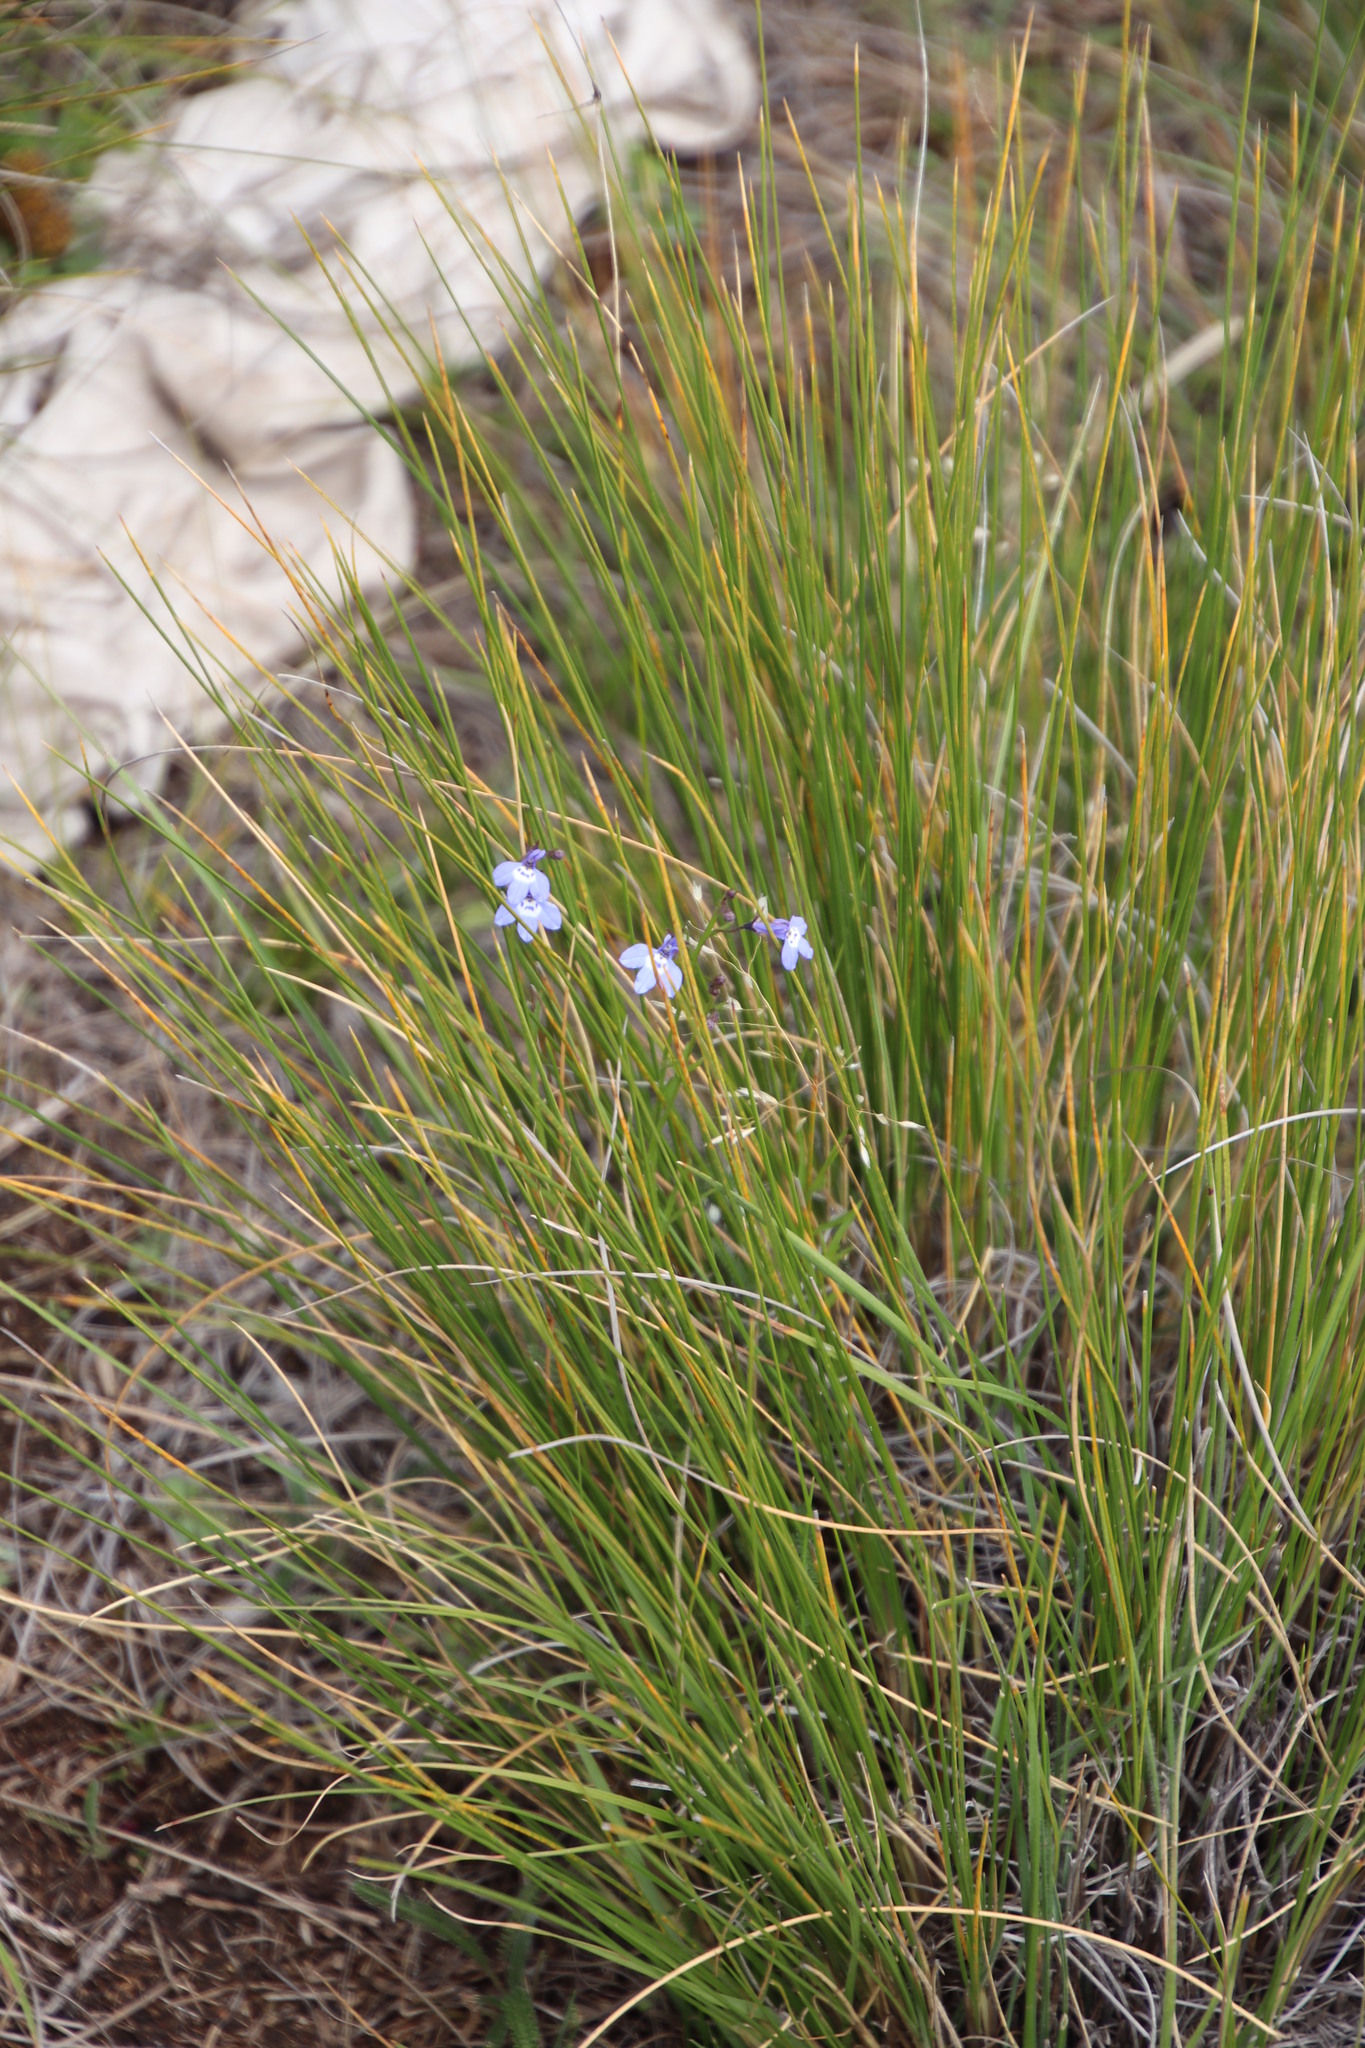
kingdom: Plantae
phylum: Tracheophyta
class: Magnoliopsida
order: Asterales
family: Campanulaceae
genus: Lobelia
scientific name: Lobelia flaccida
